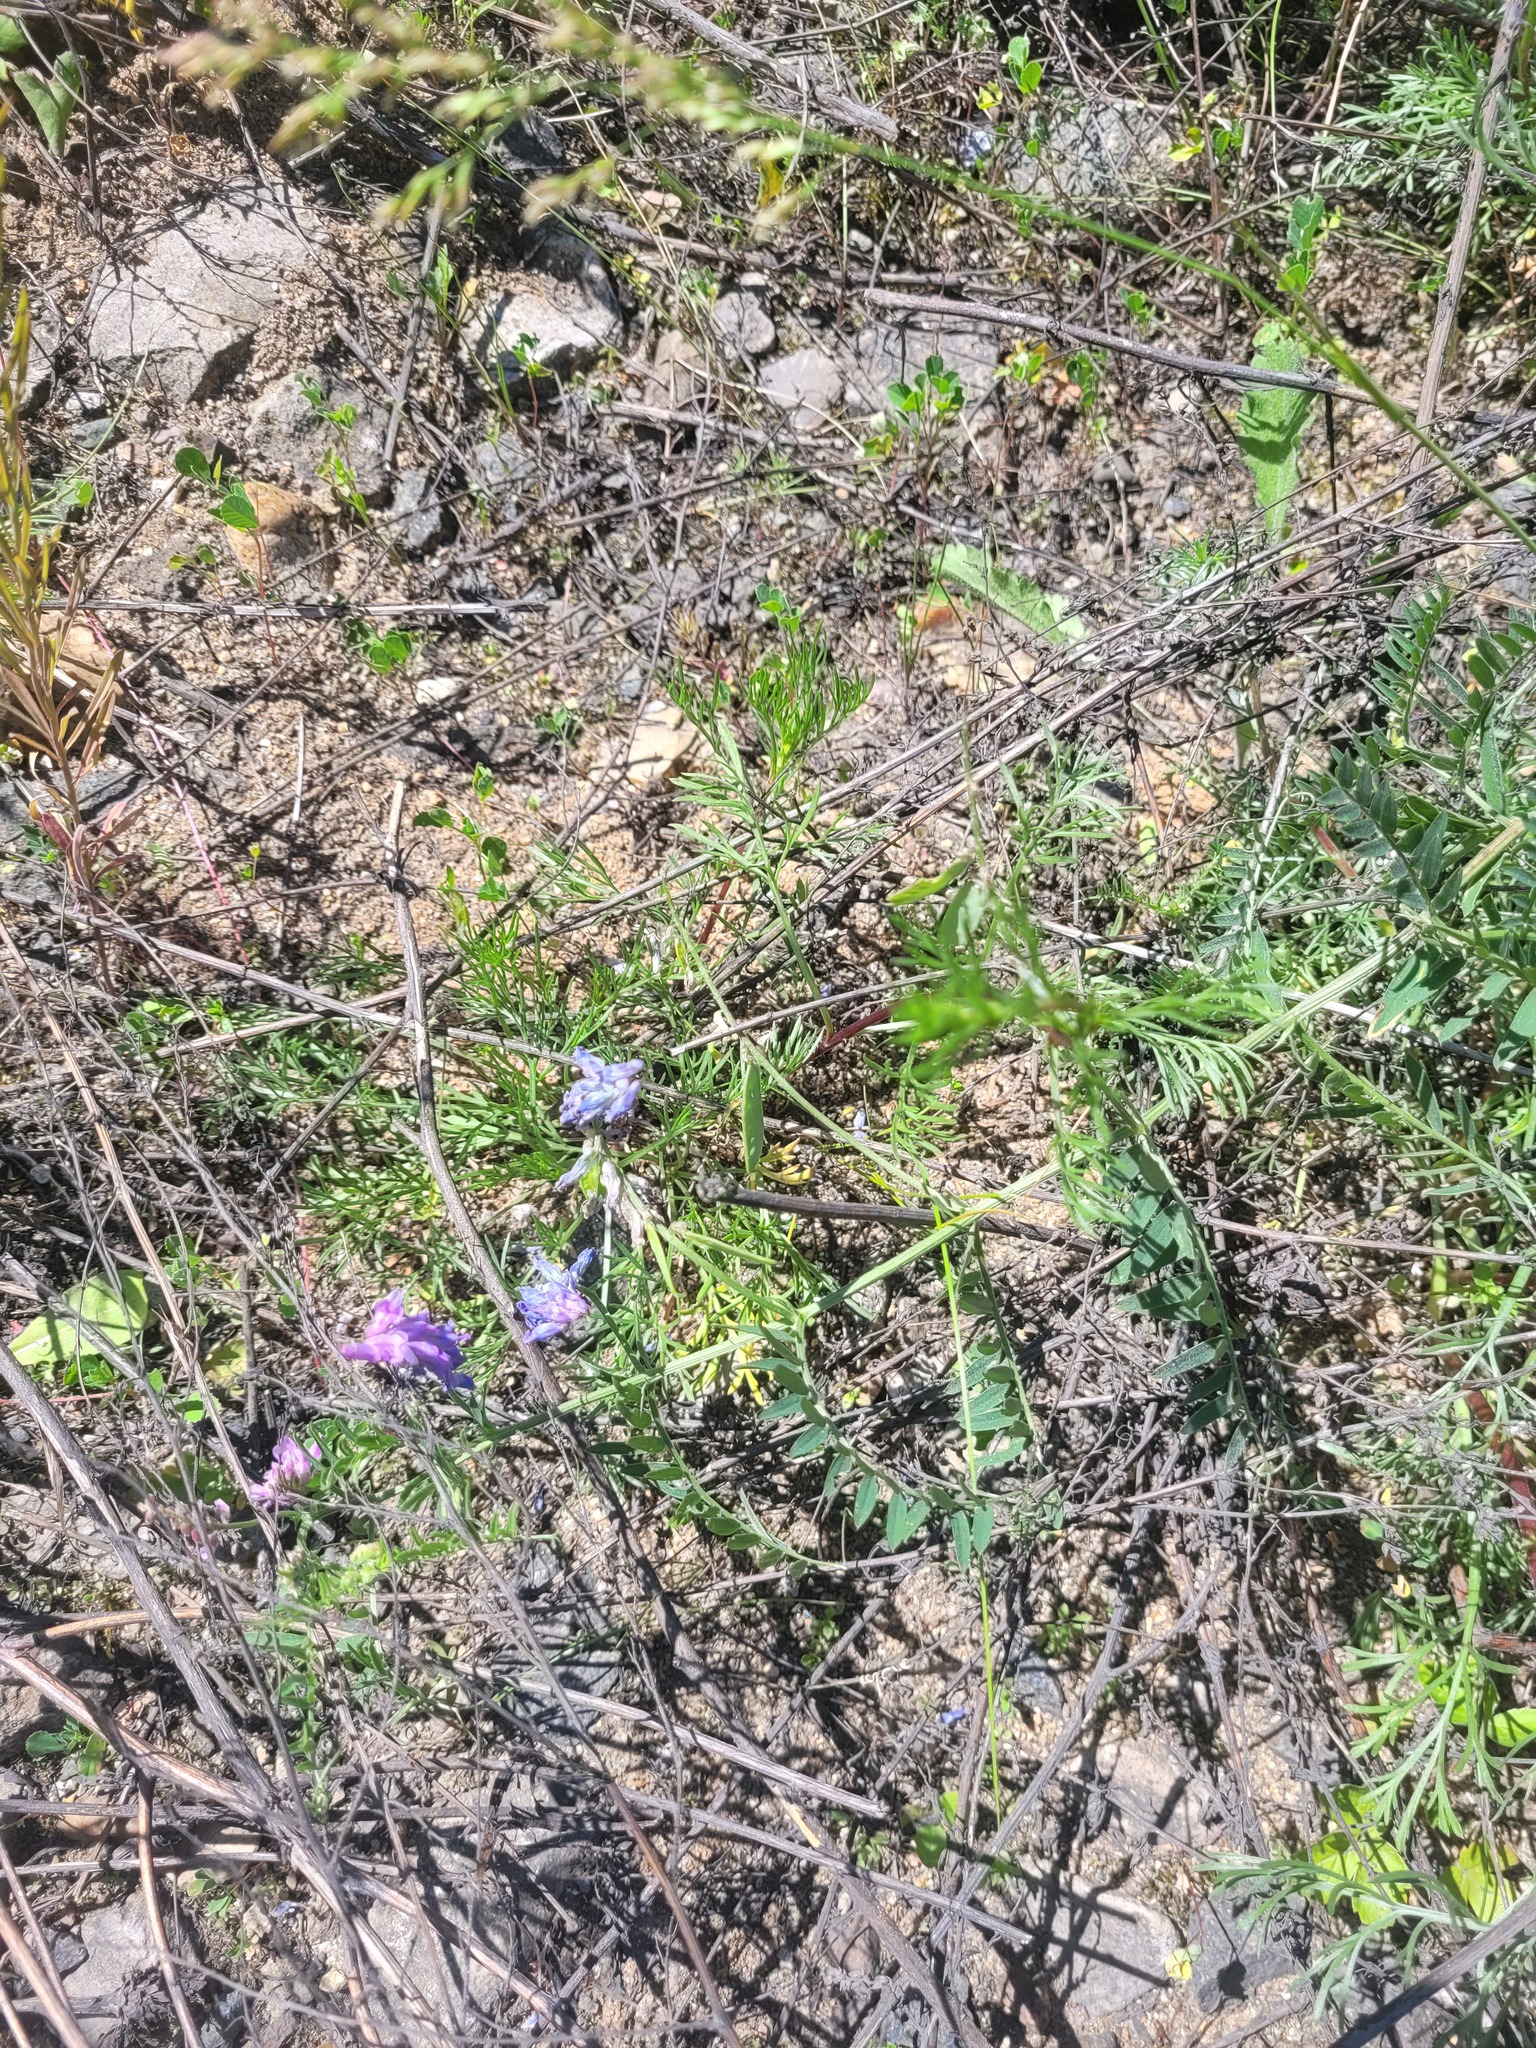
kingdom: Plantae
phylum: Tracheophyta
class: Magnoliopsida
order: Fabales
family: Fabaceae
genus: Vicia
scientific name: Vicia cracca
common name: Bird vetch
